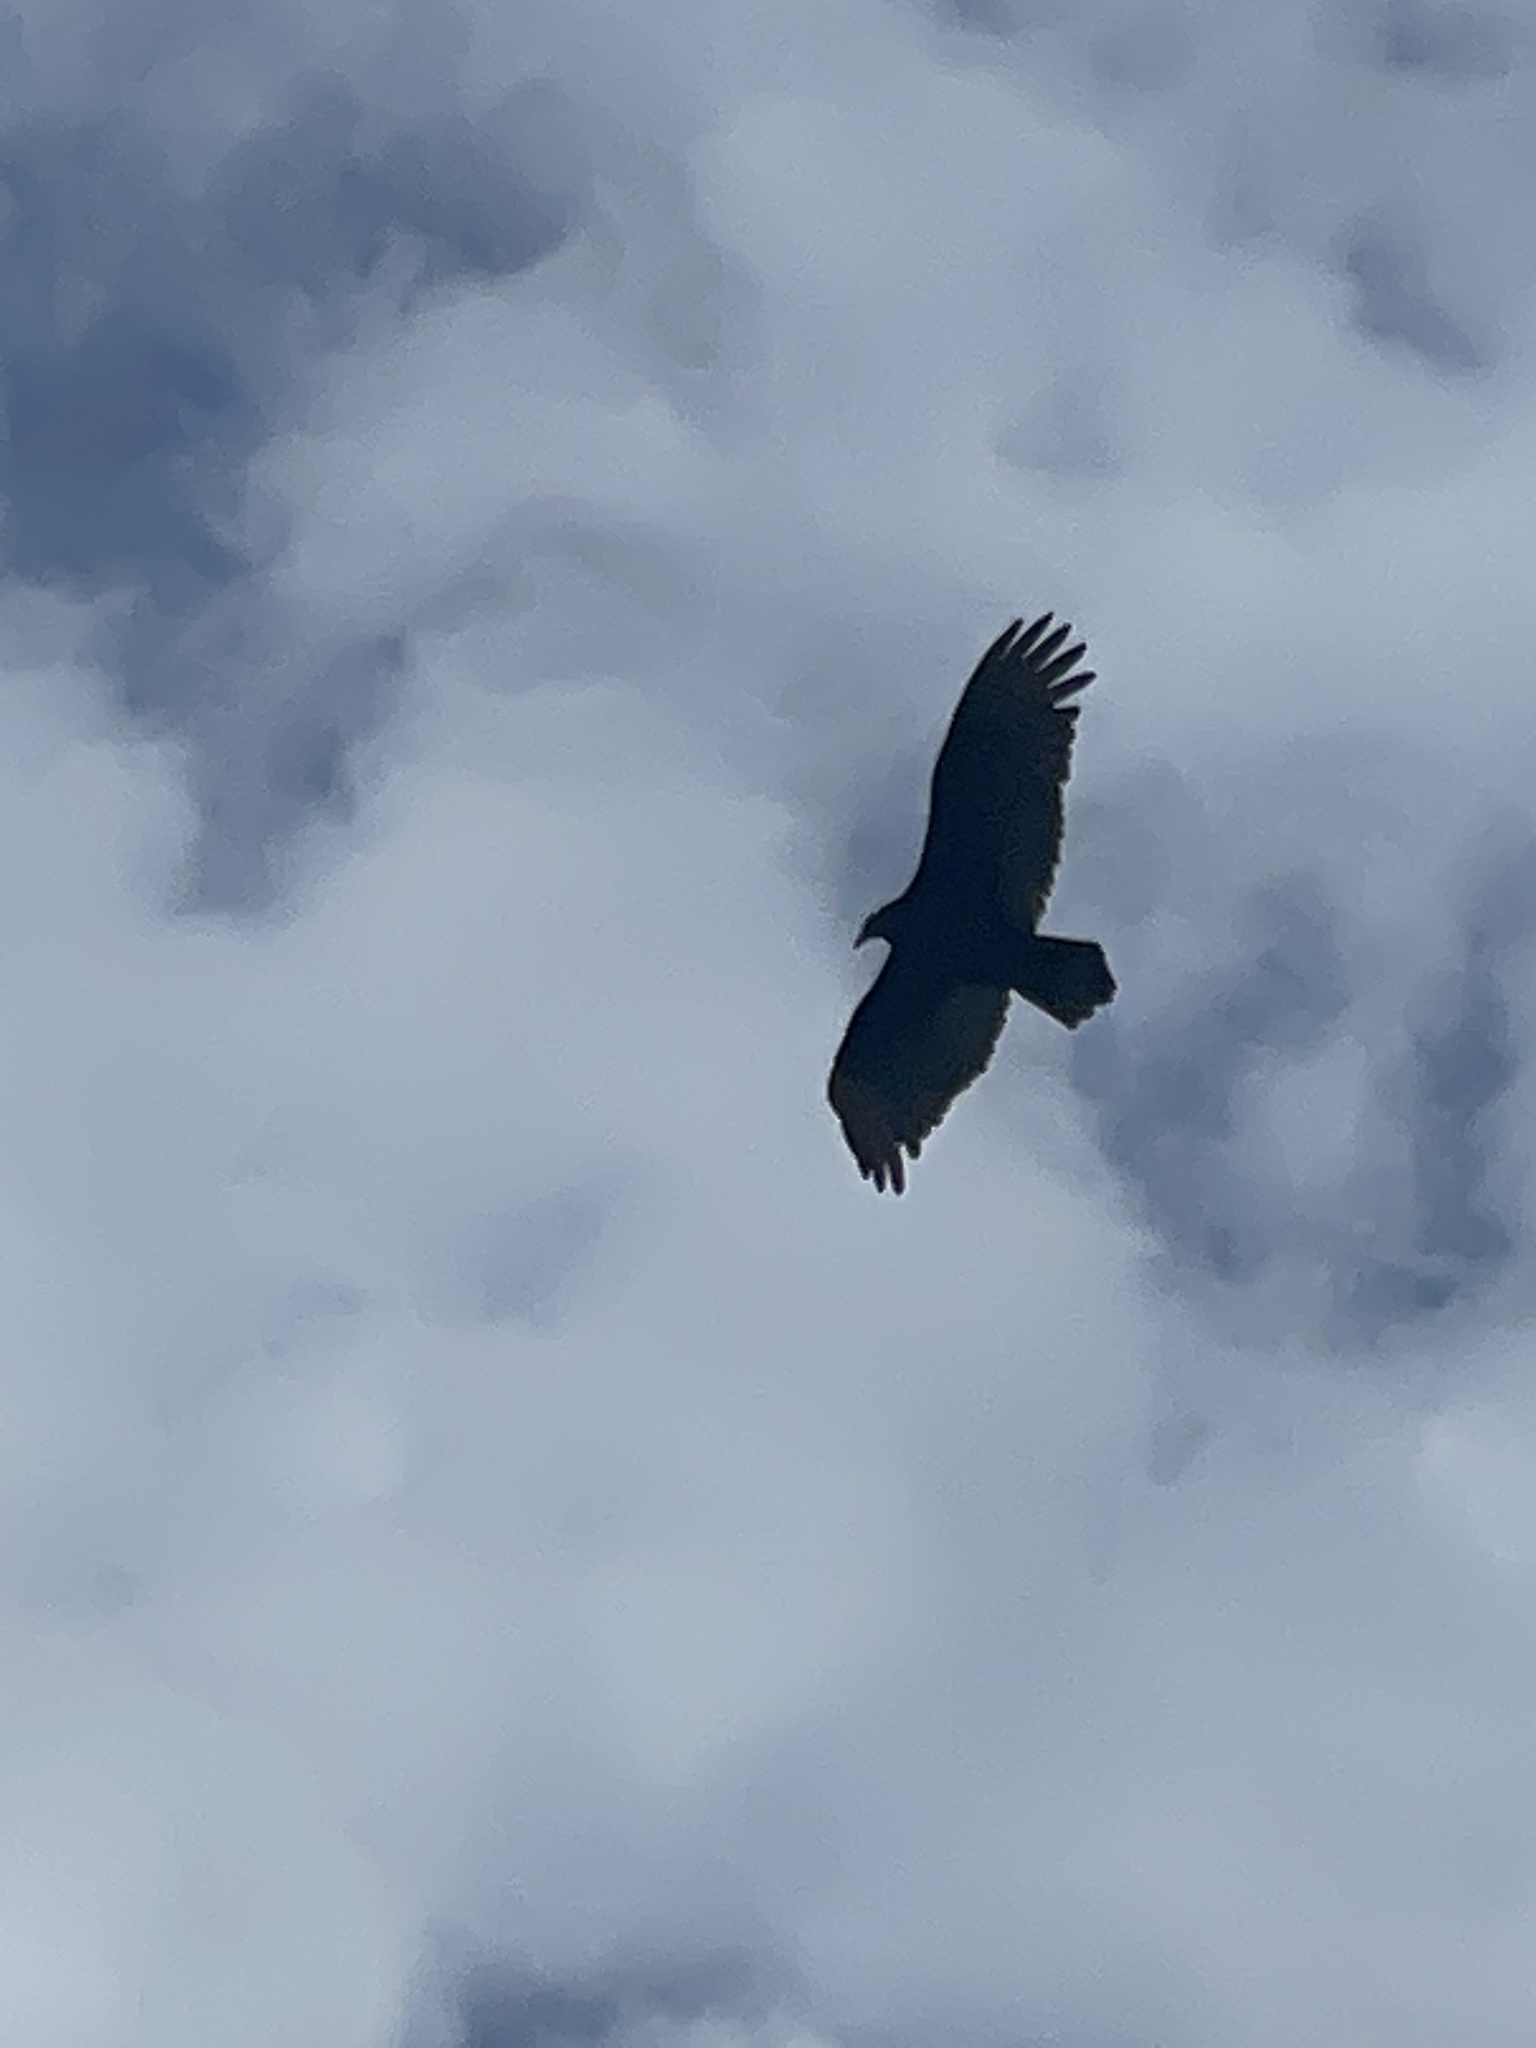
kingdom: Animalia
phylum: Chordata
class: Aves
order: Accipitriformes
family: Cathartidae
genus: Cathartes
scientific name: Cathartes aura
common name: Turkey vulture
